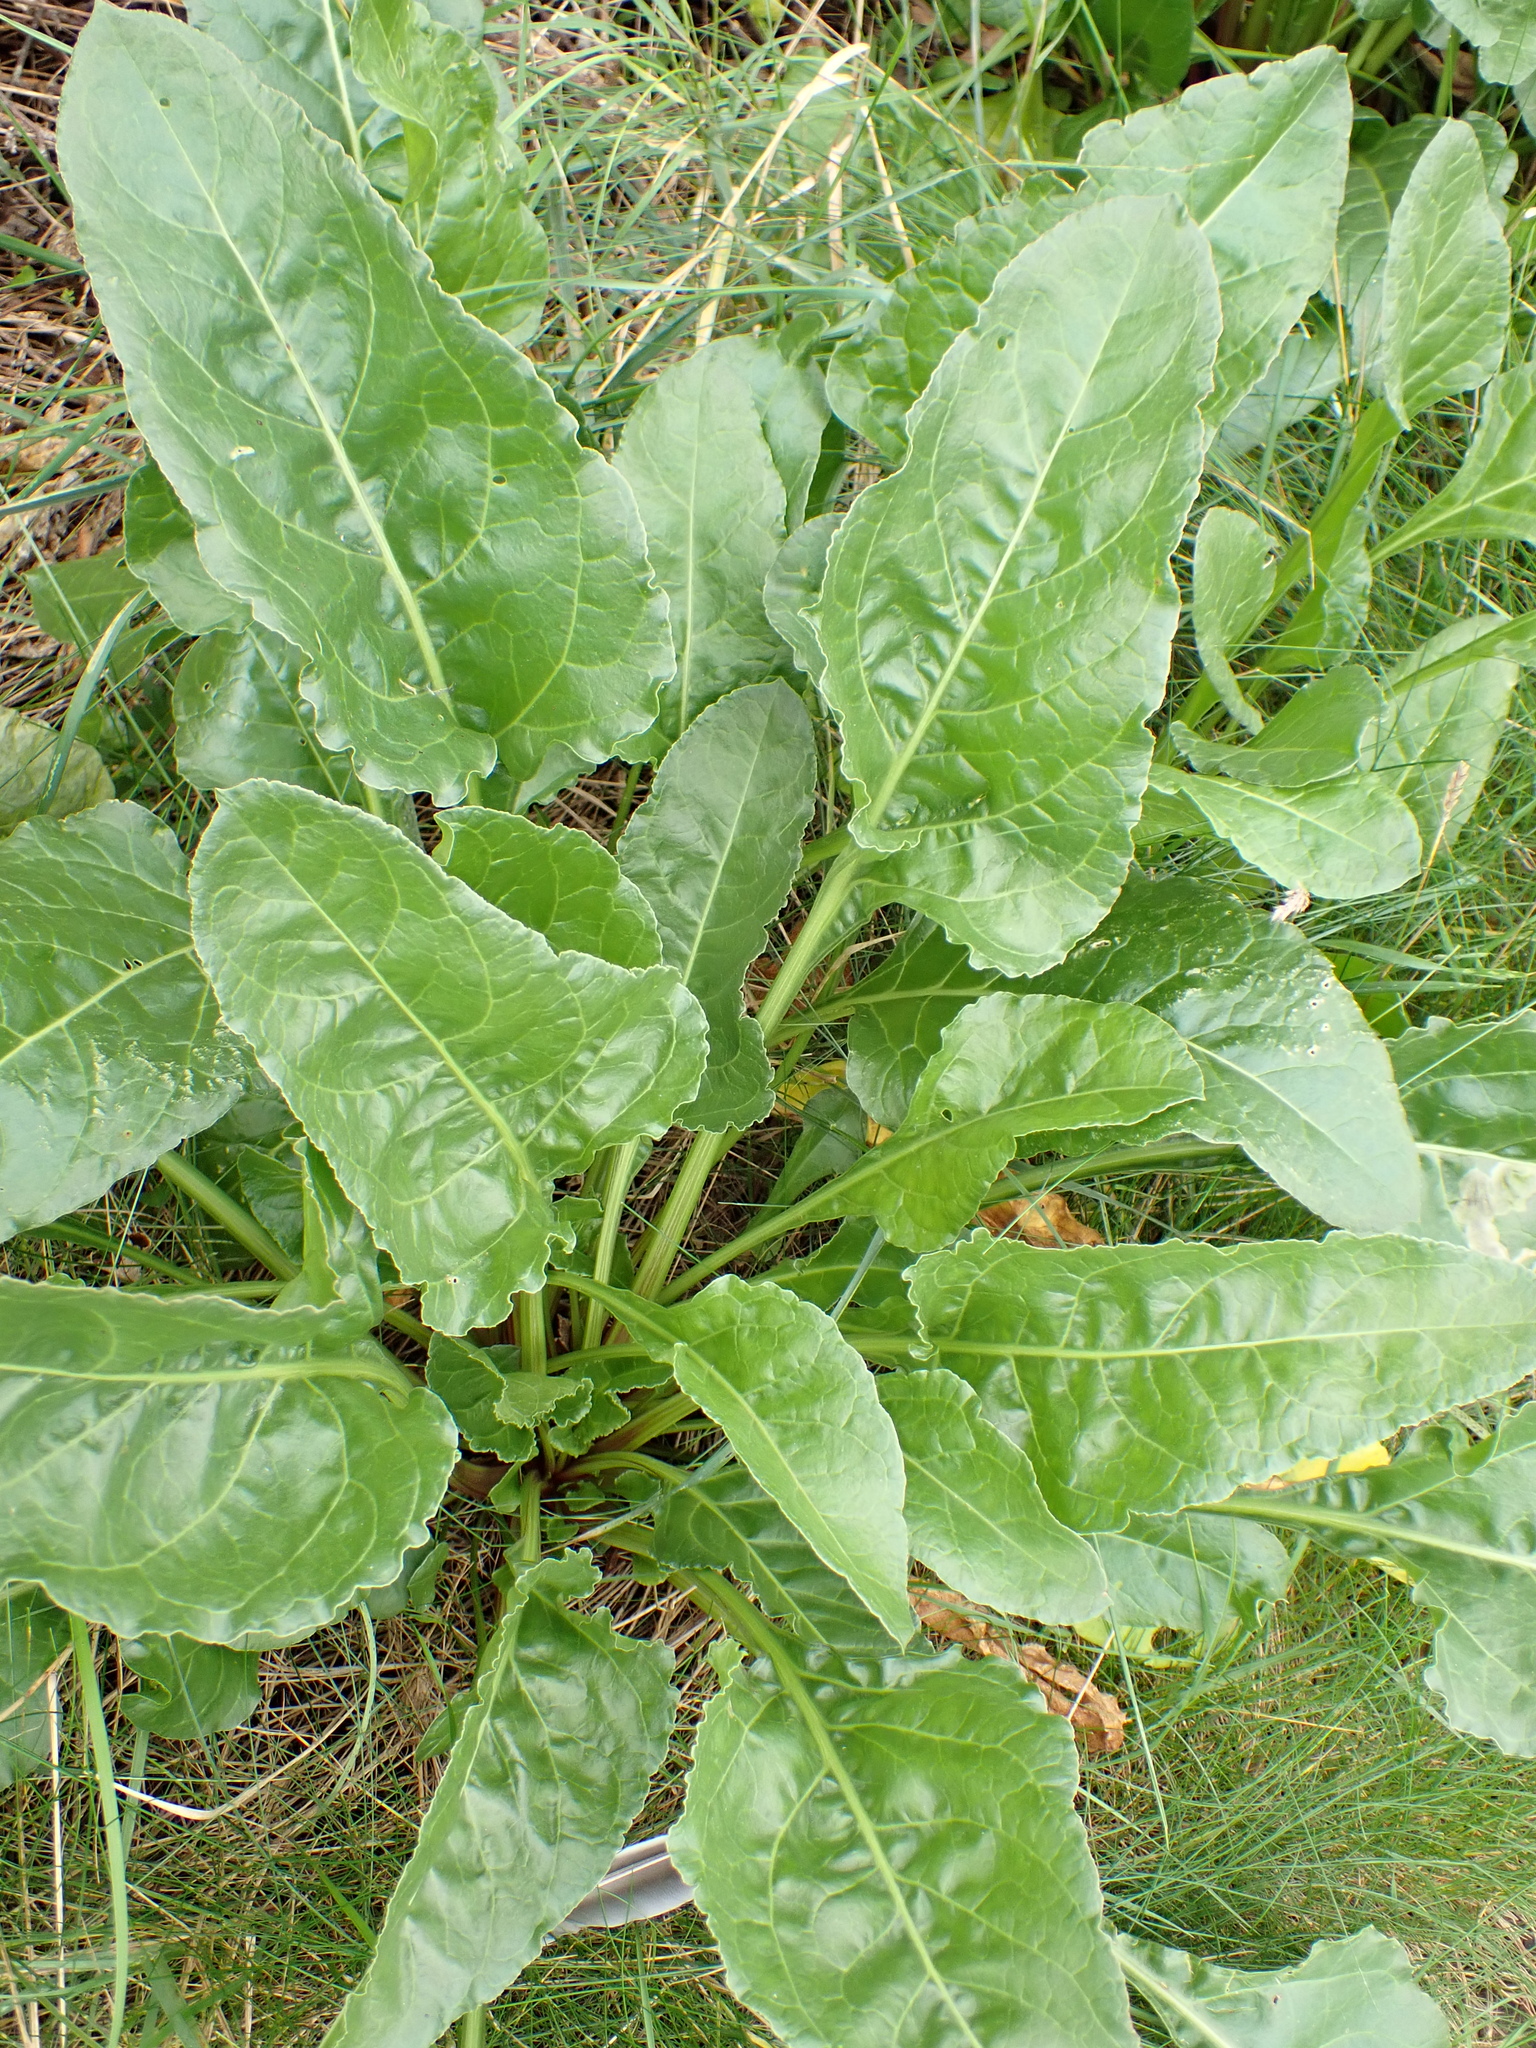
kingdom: Plantae
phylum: Tracheophyta
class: Magnoliopsida
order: Caryophyllales
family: Amaranthaceae
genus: Beta
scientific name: Beta vulgaris
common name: Beet
